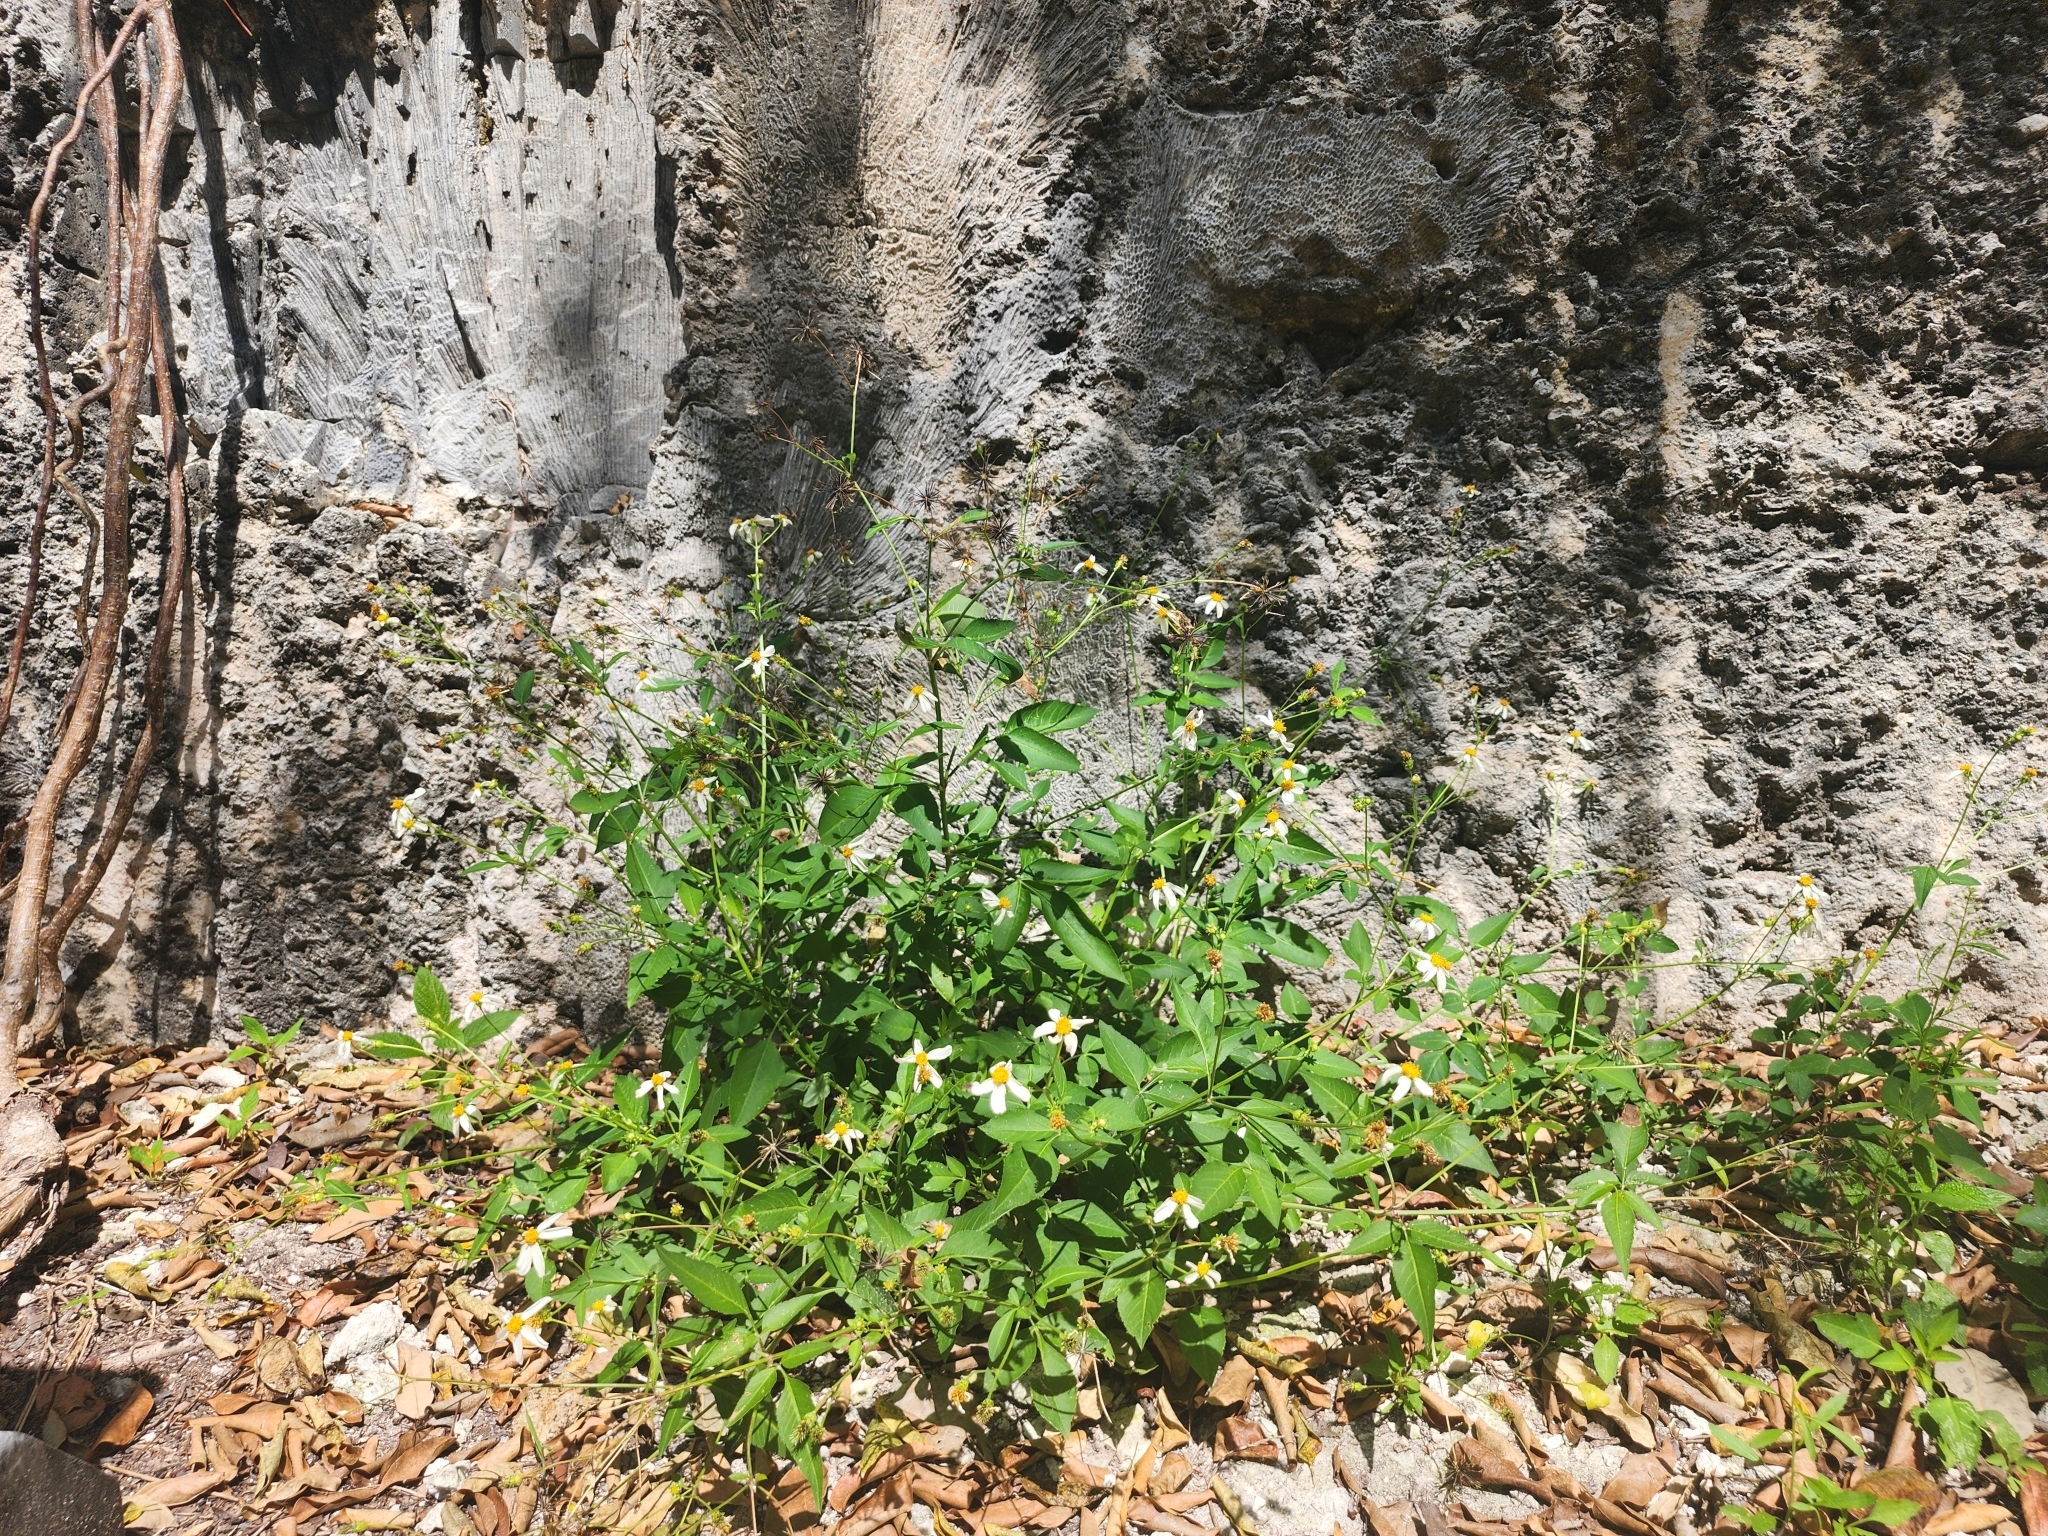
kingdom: Plantae
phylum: Tracheophyta
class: Magnoliopsida
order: Asterales
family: Asteraceae
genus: Bidens
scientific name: Bidens alba
